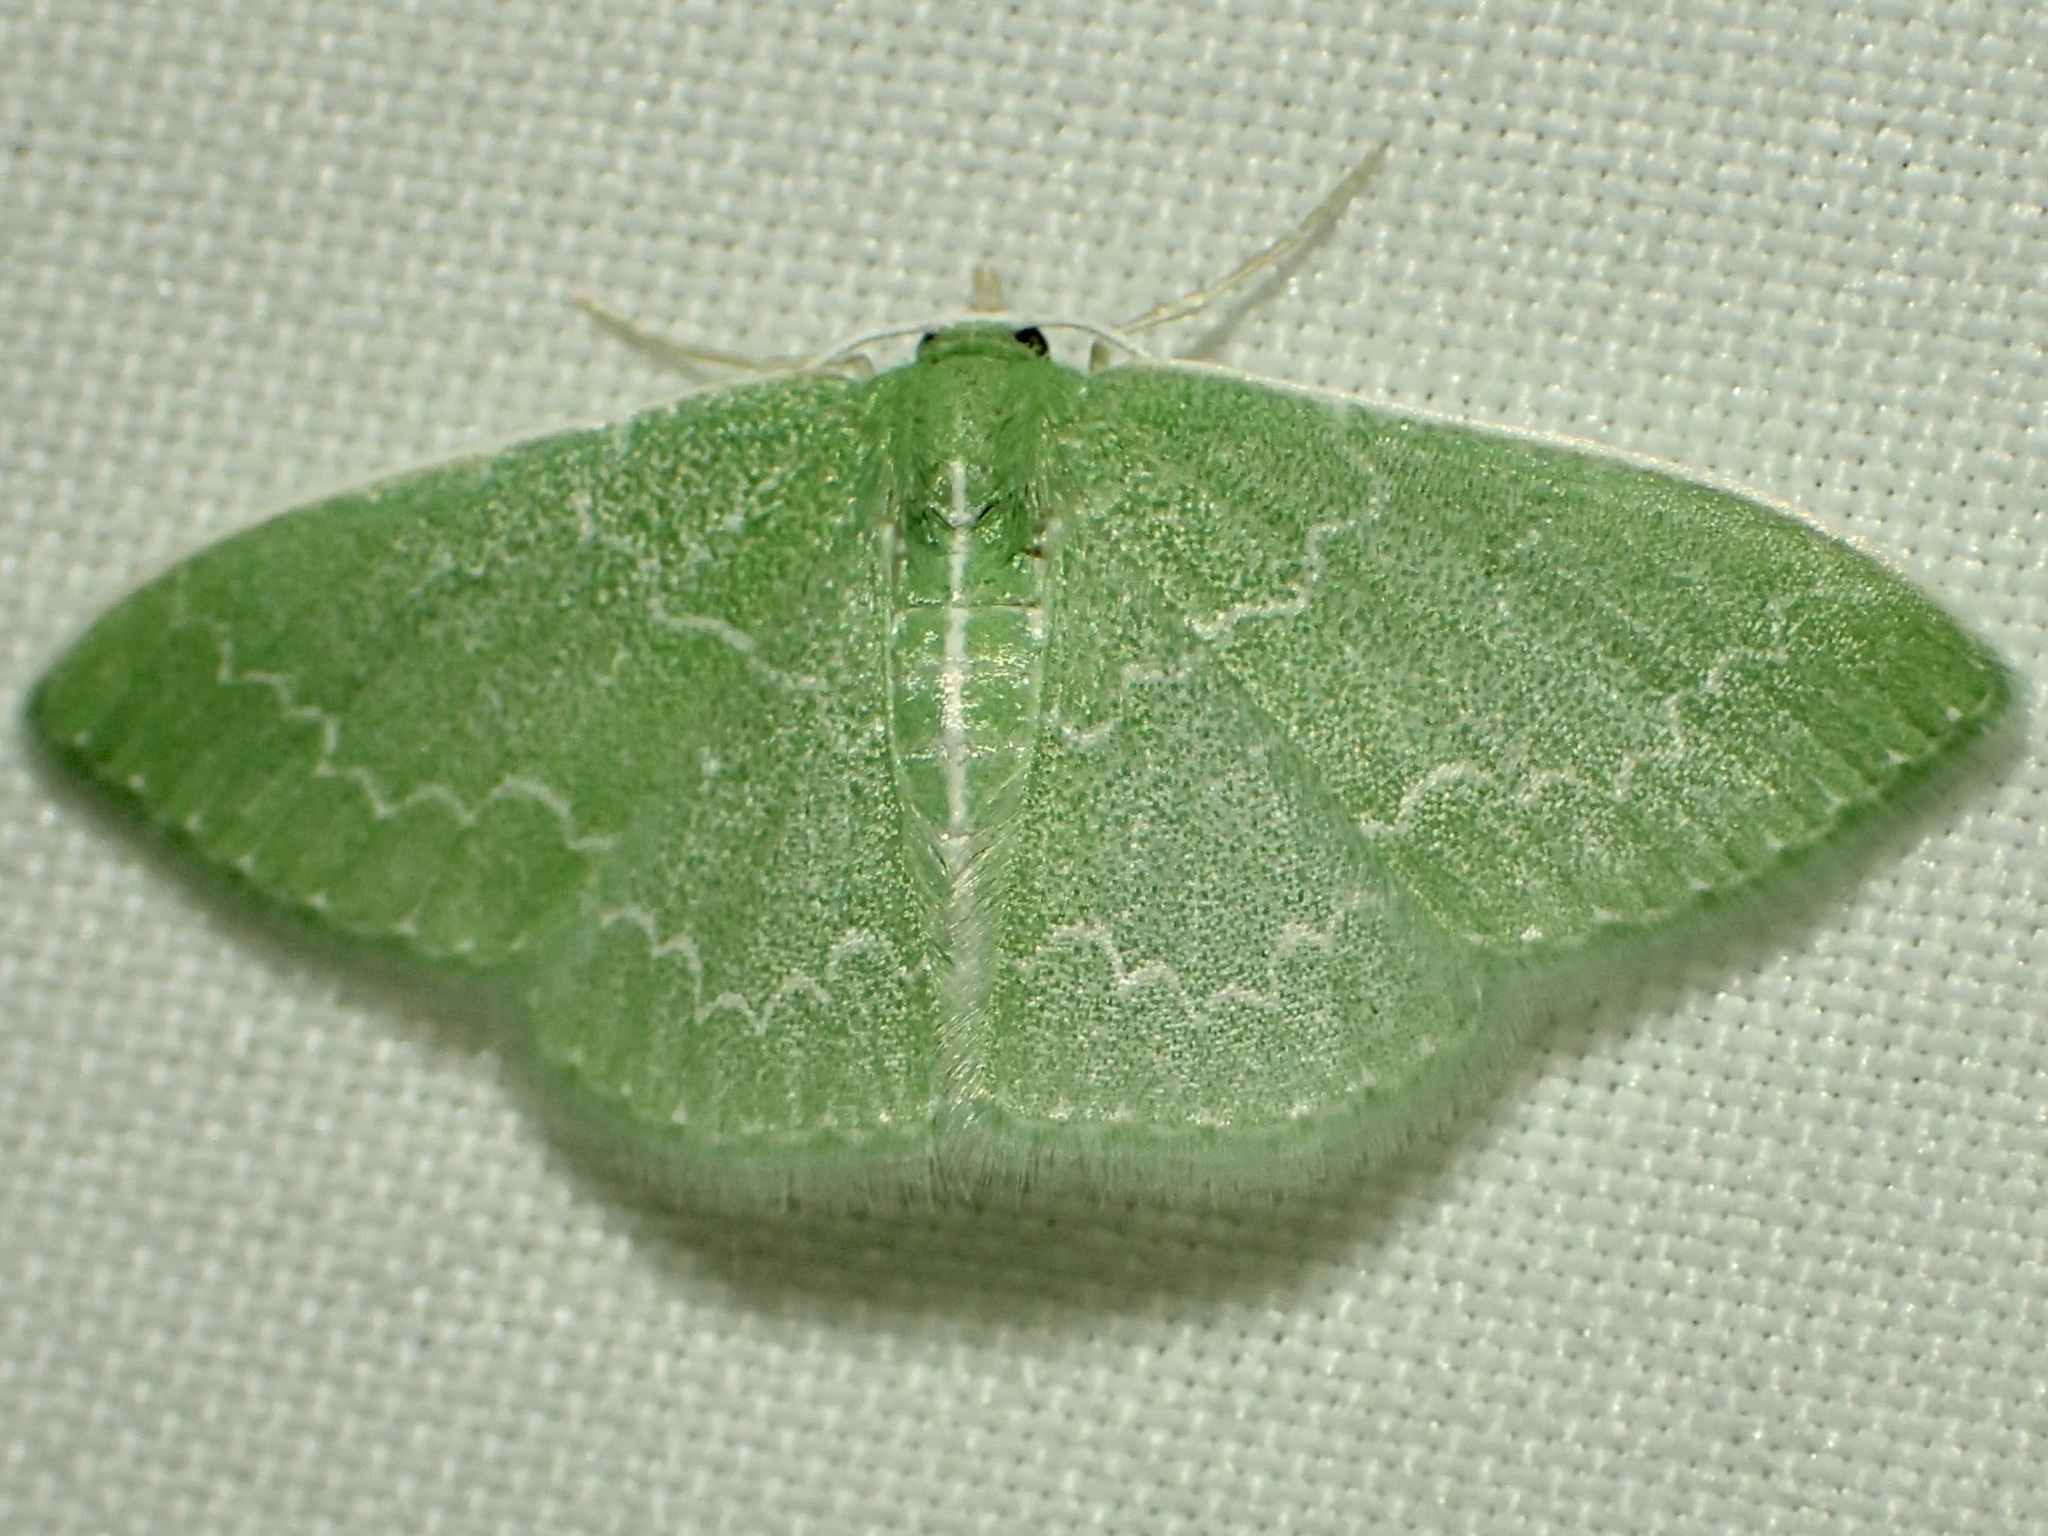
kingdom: Animalia
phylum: Arthropoda
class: Insecta
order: Lepidoptera
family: Geometridae
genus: Synchlora
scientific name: Synchlora frondaria
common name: Southern emerald
